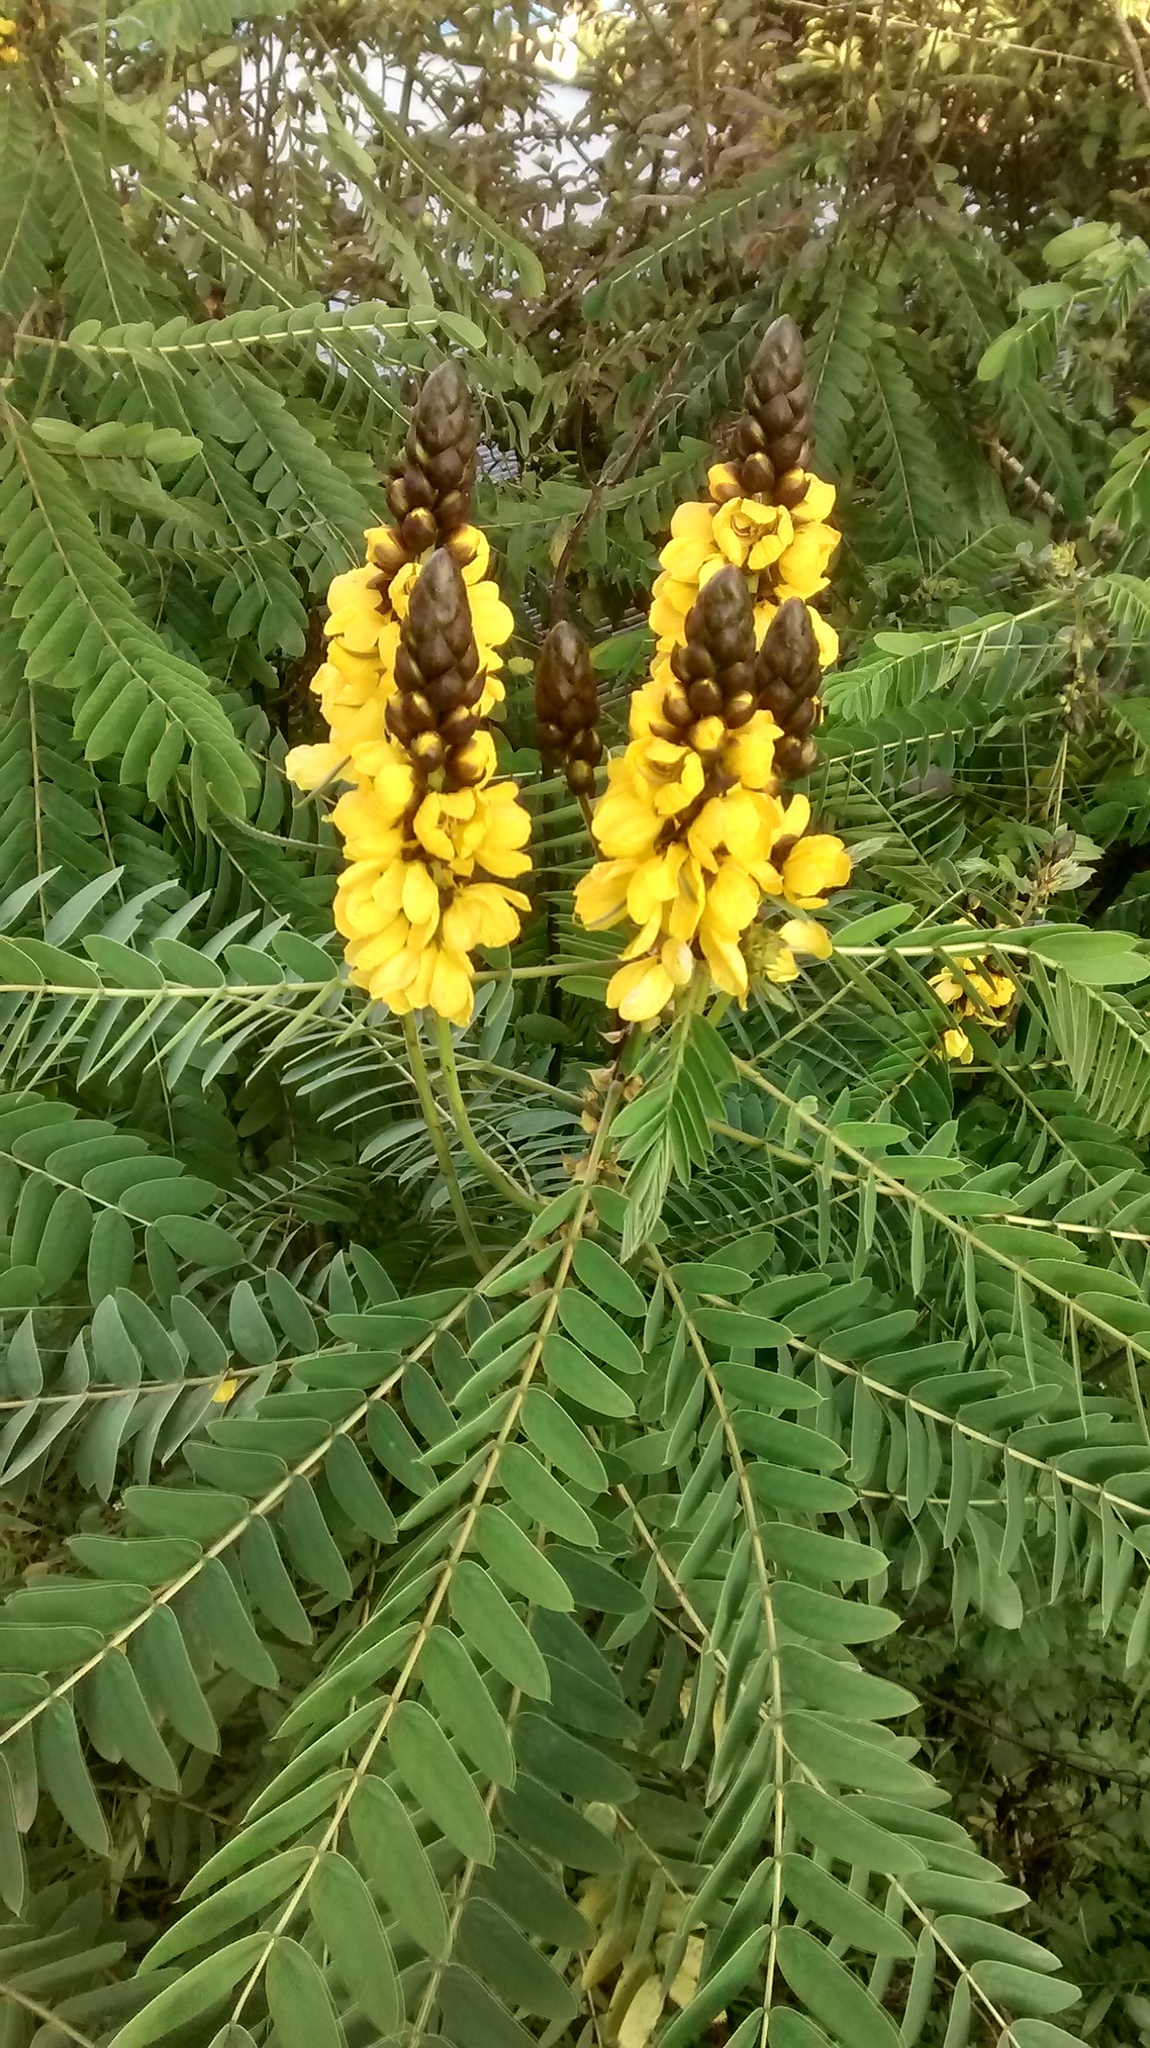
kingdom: Plantae
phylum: Tracheophyta
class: Magnoliopsida
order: Fabales
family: Fabaceae
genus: Senna
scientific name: Senna didymobotrya
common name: African senna
